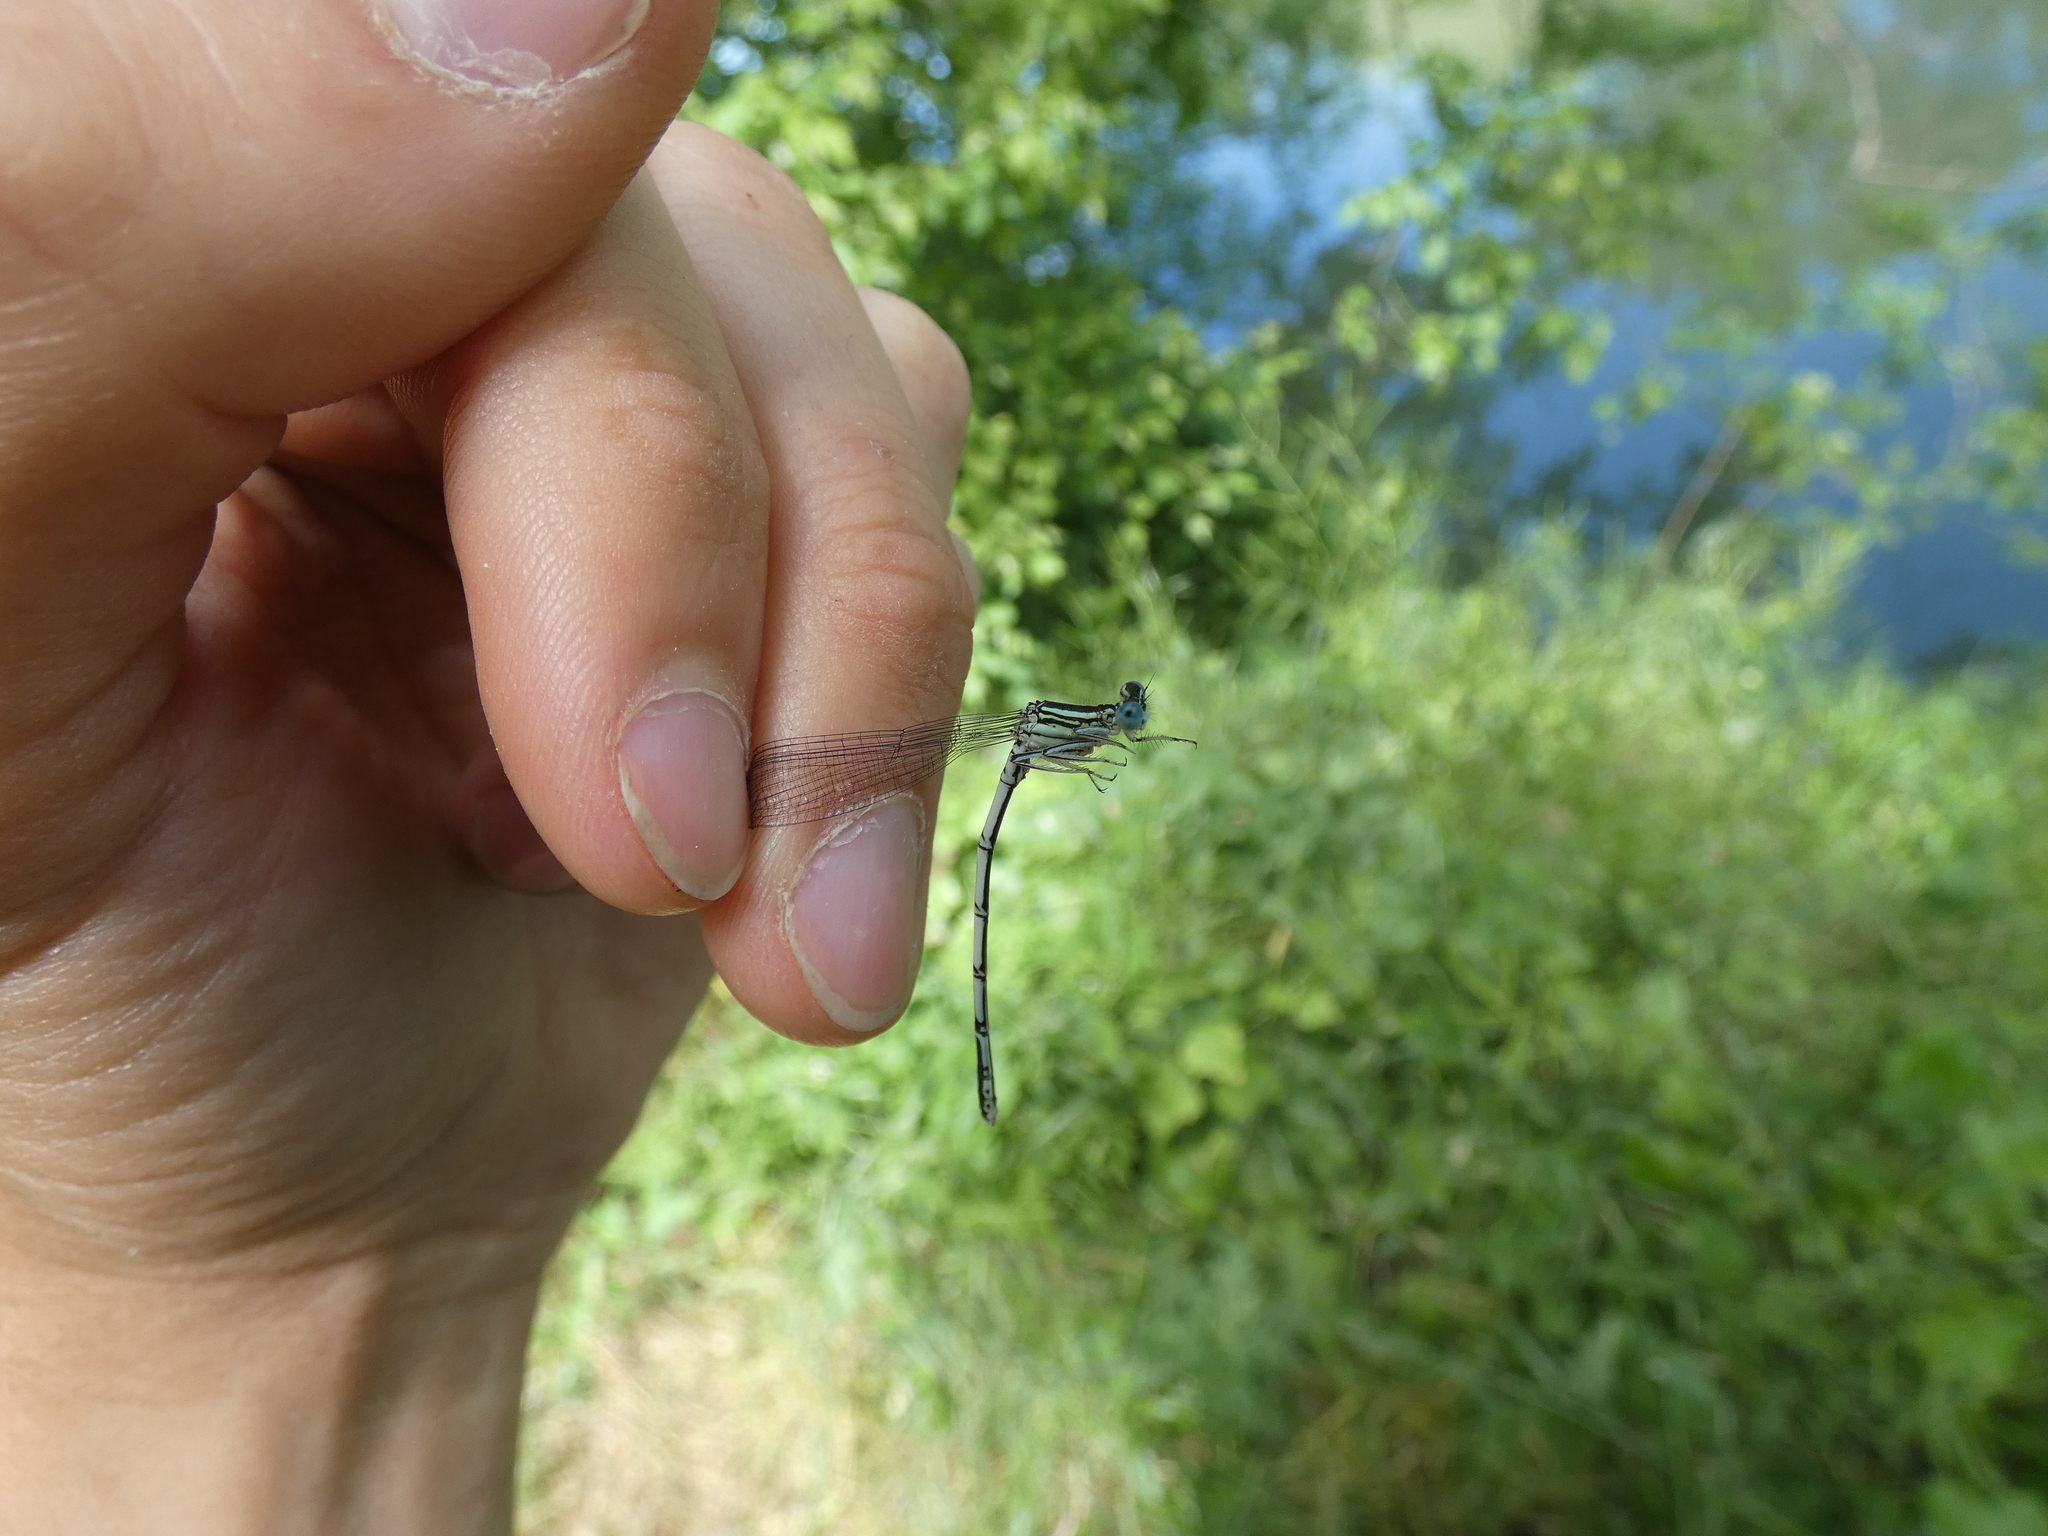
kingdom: Animalia
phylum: Arthropoda
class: Insecta
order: Odonata
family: Platycnemididae
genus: Platycnemis
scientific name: Platycnemis pennipes
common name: White-legged damselfly
